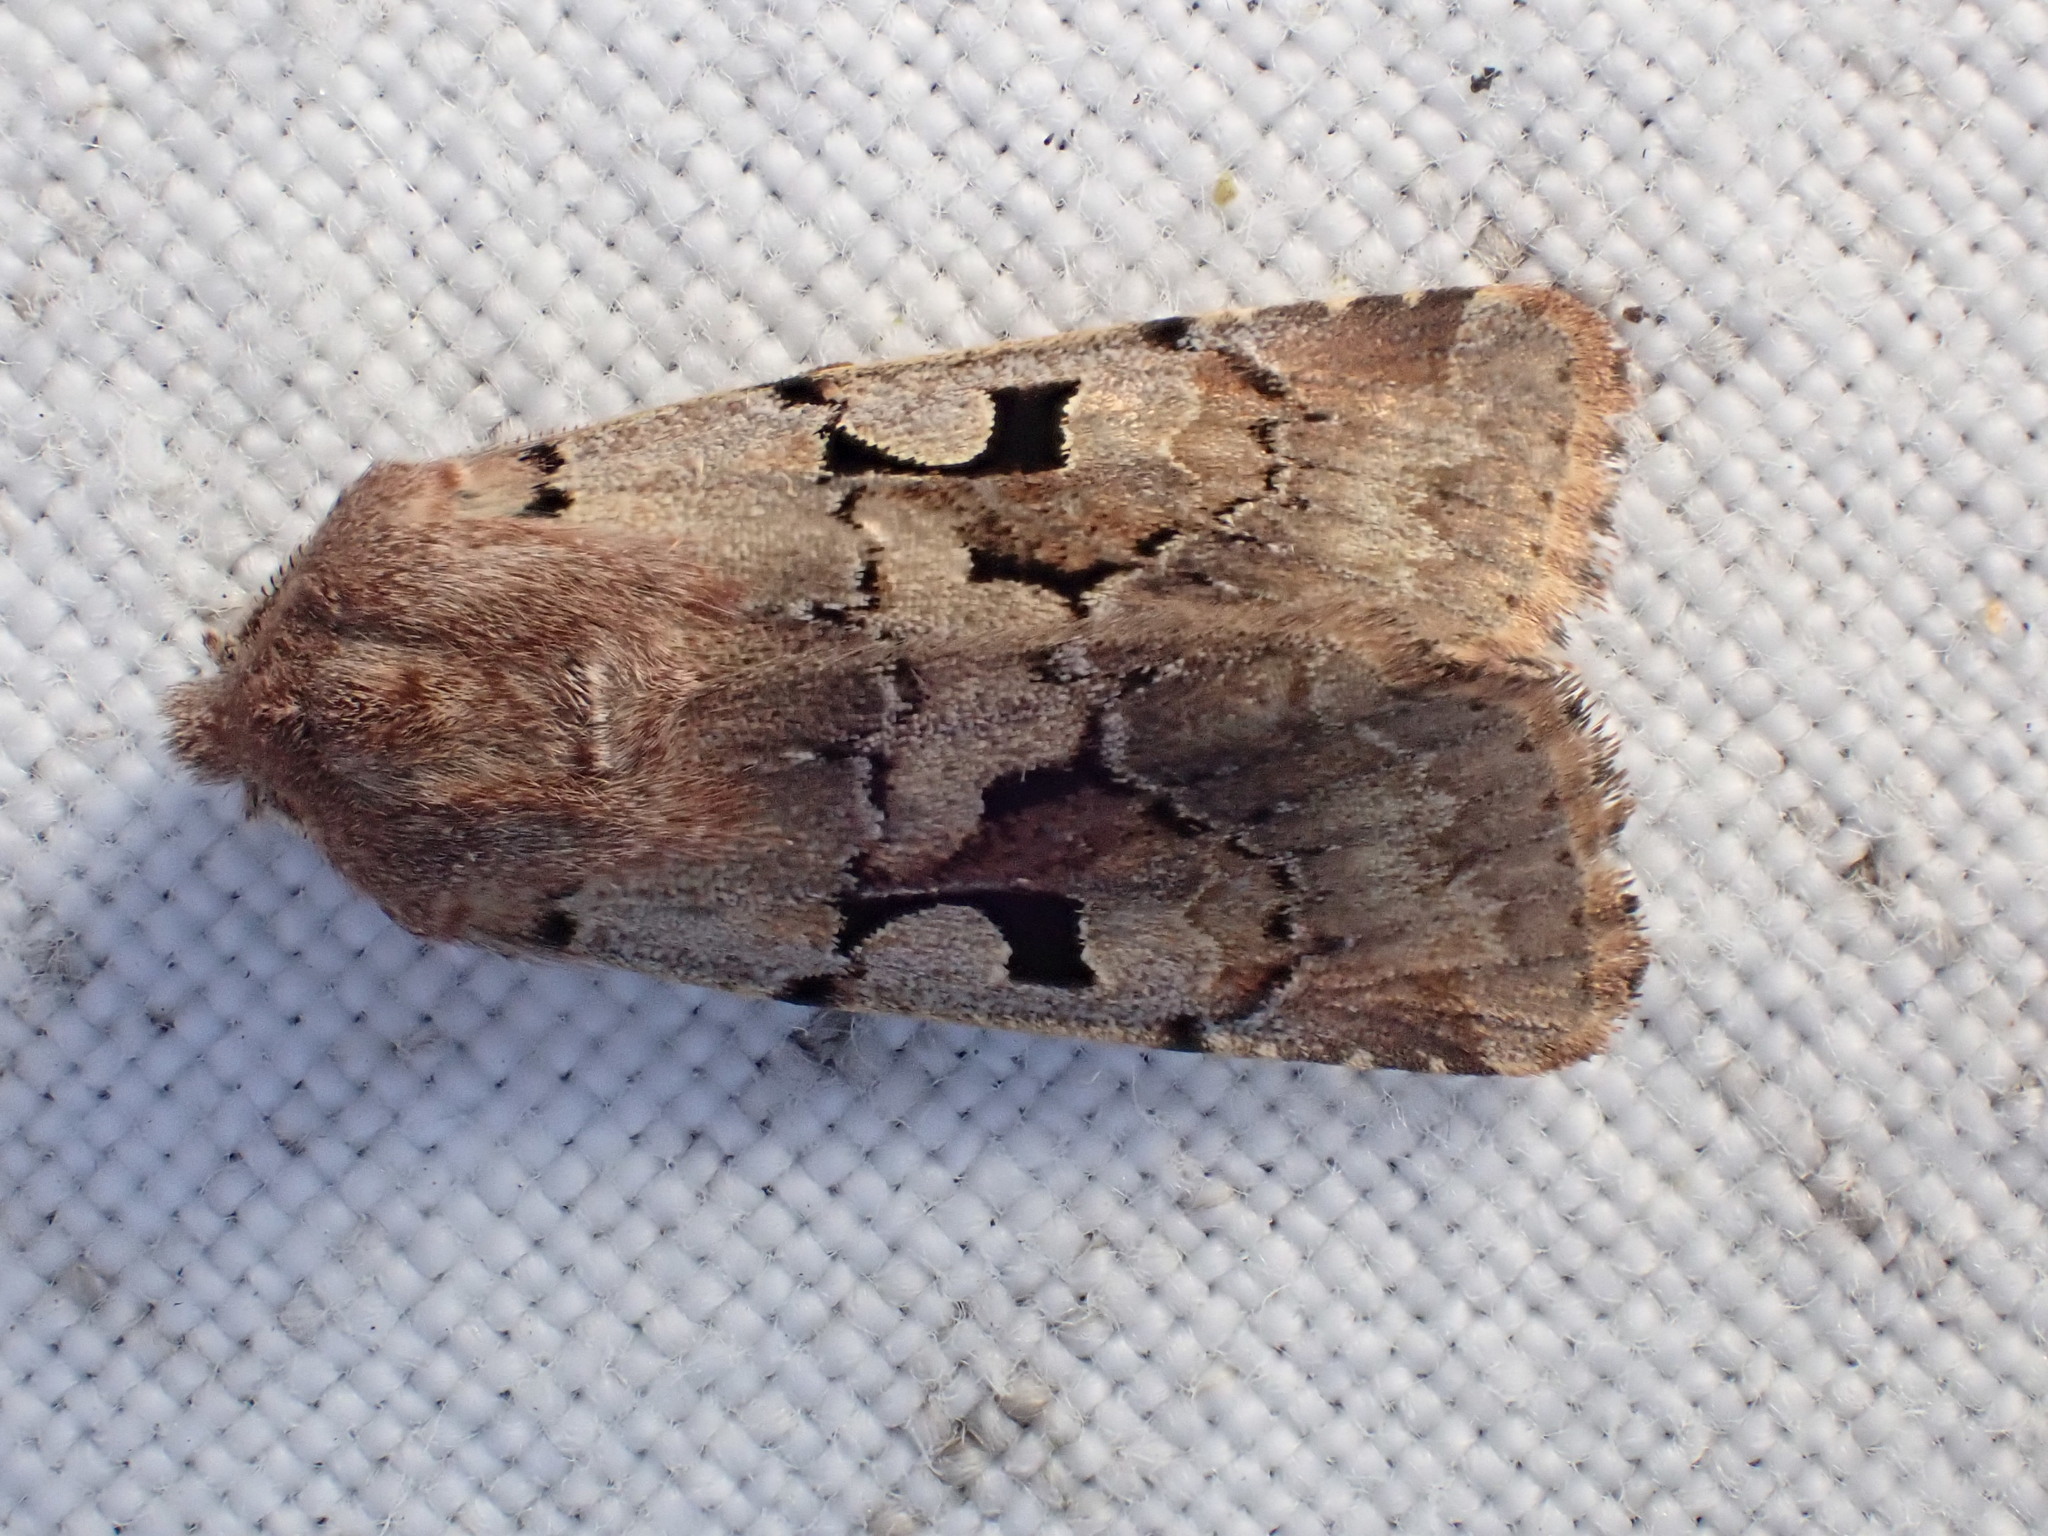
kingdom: Animalia
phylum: Arthropoda
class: Insecta
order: Lepidoptera
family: Noctuidae
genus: Orthosia
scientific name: Orthosia gothica
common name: Hebrew character
